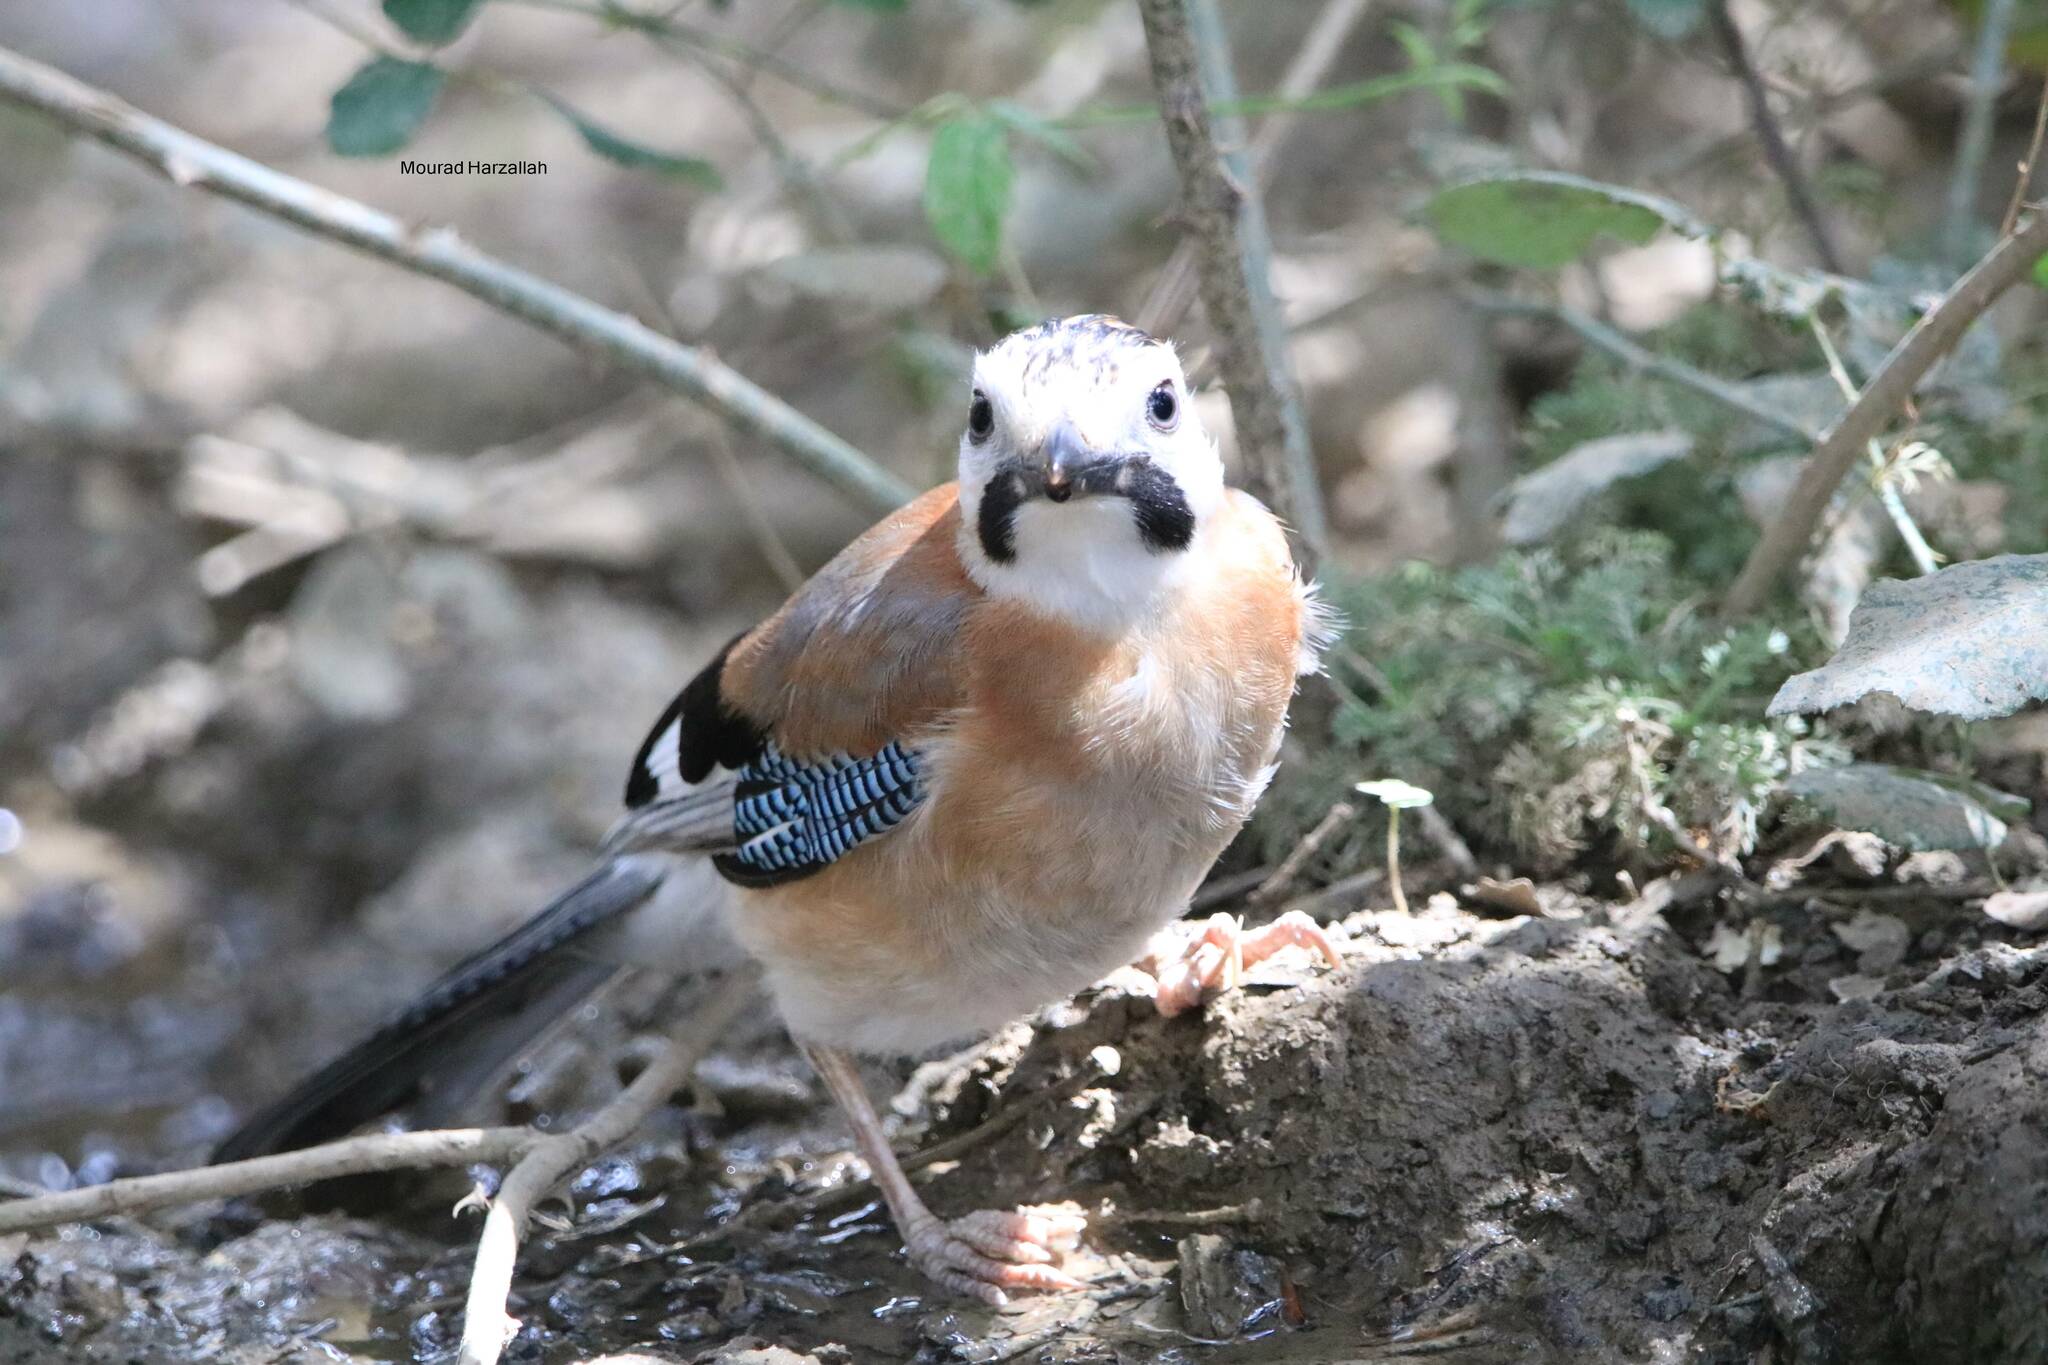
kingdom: Animalia
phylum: Chordata
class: Aves
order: Passeriformes
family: Corvidae
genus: Garrulus
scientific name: Garrulus glandarius
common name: Eurasian jay
